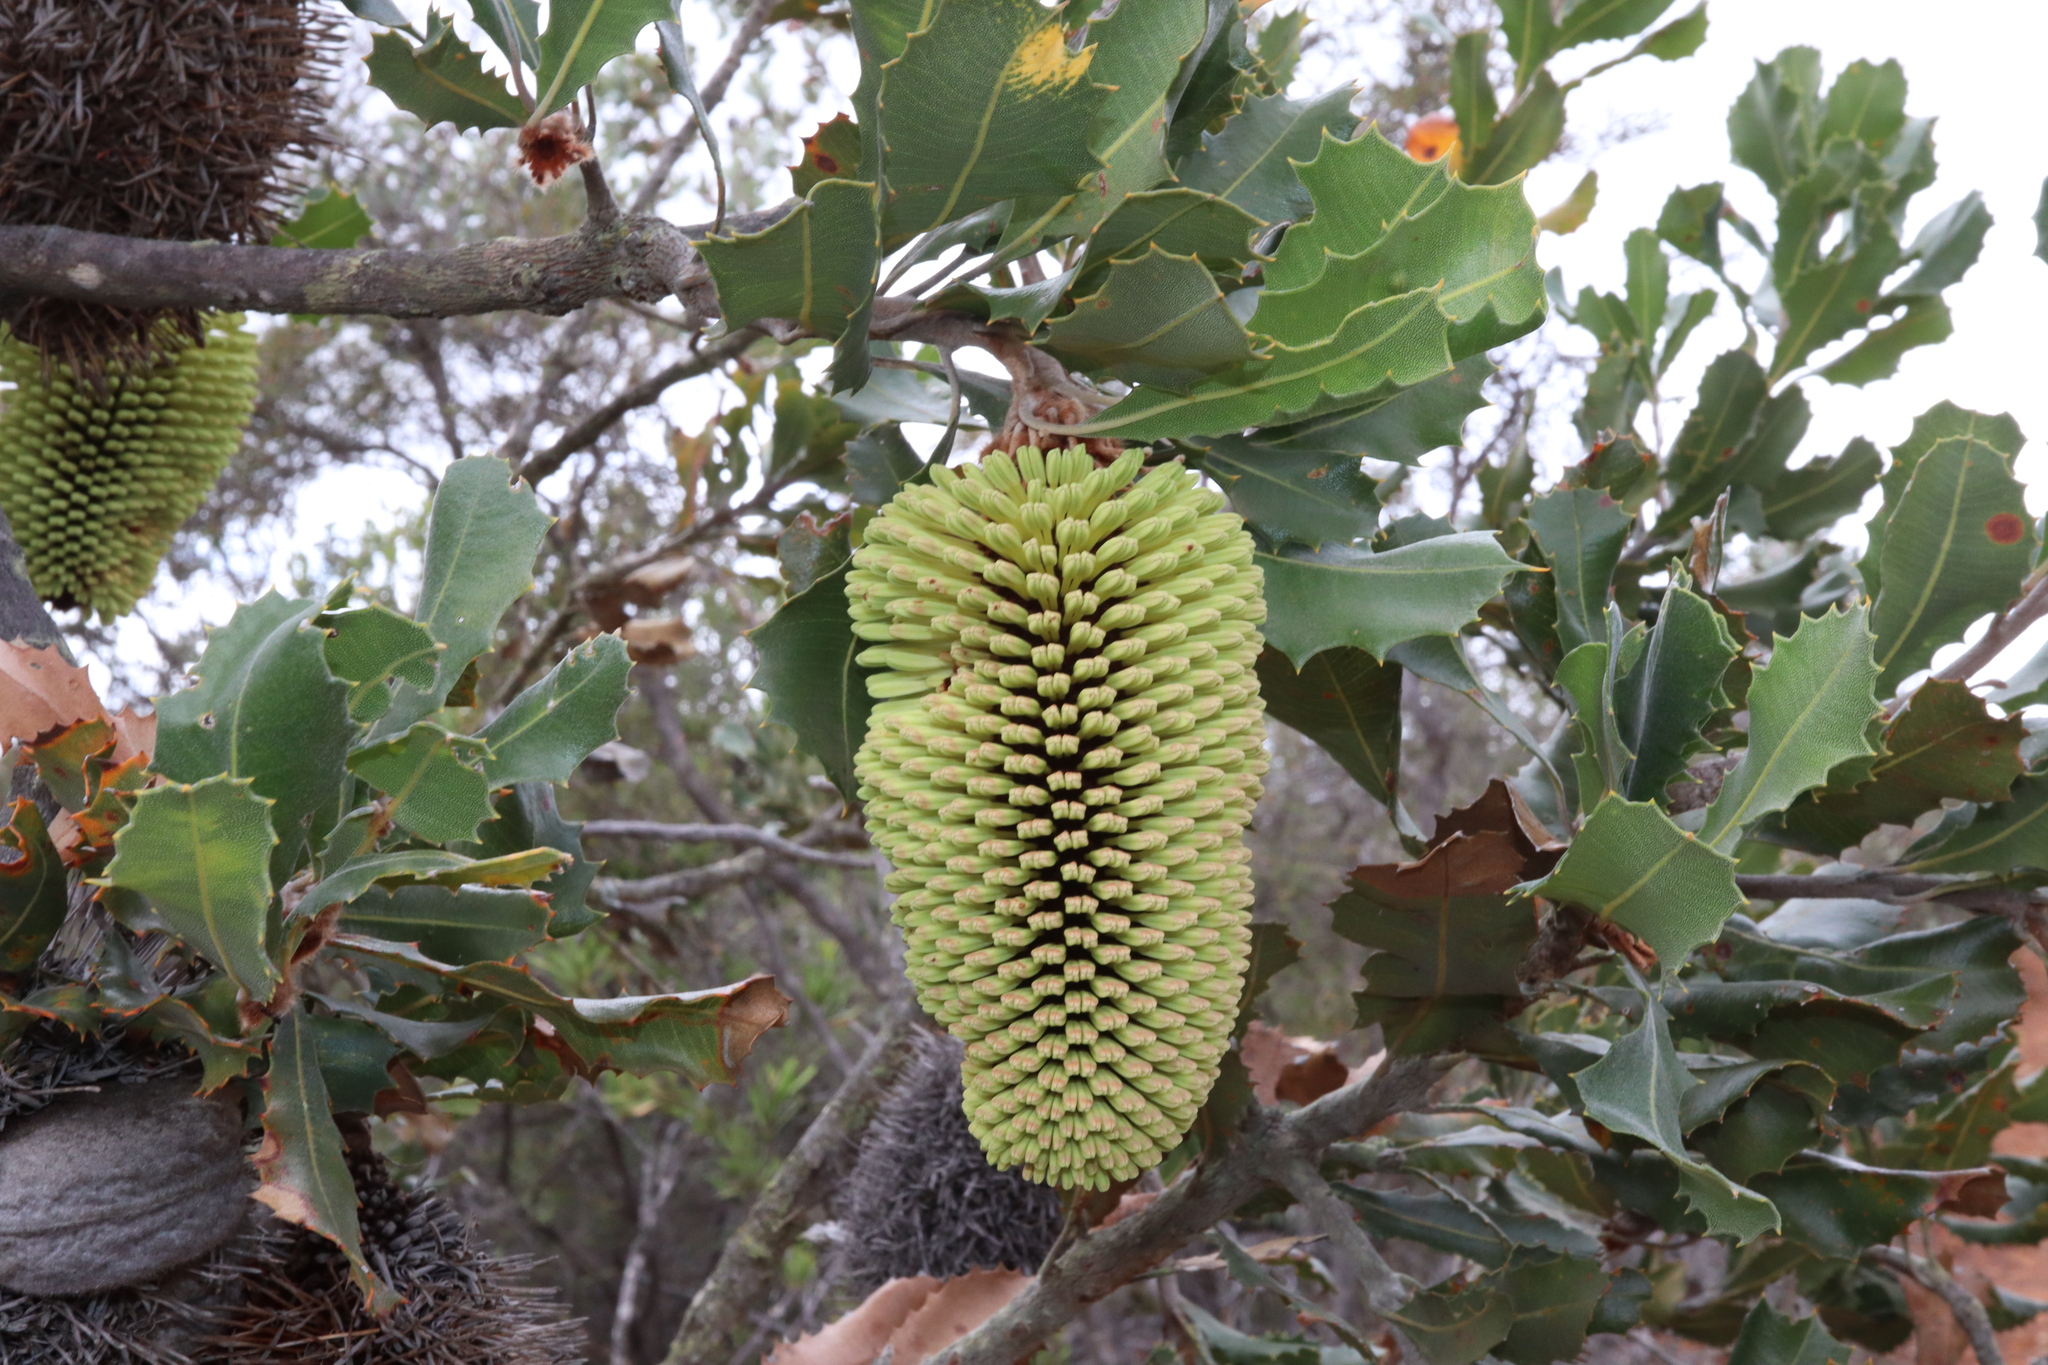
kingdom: Plantae
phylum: Tracheophyta
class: Magnoliopsida
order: Proteales
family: Proteaceae
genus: Banksia
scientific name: Banksia lemanniana
